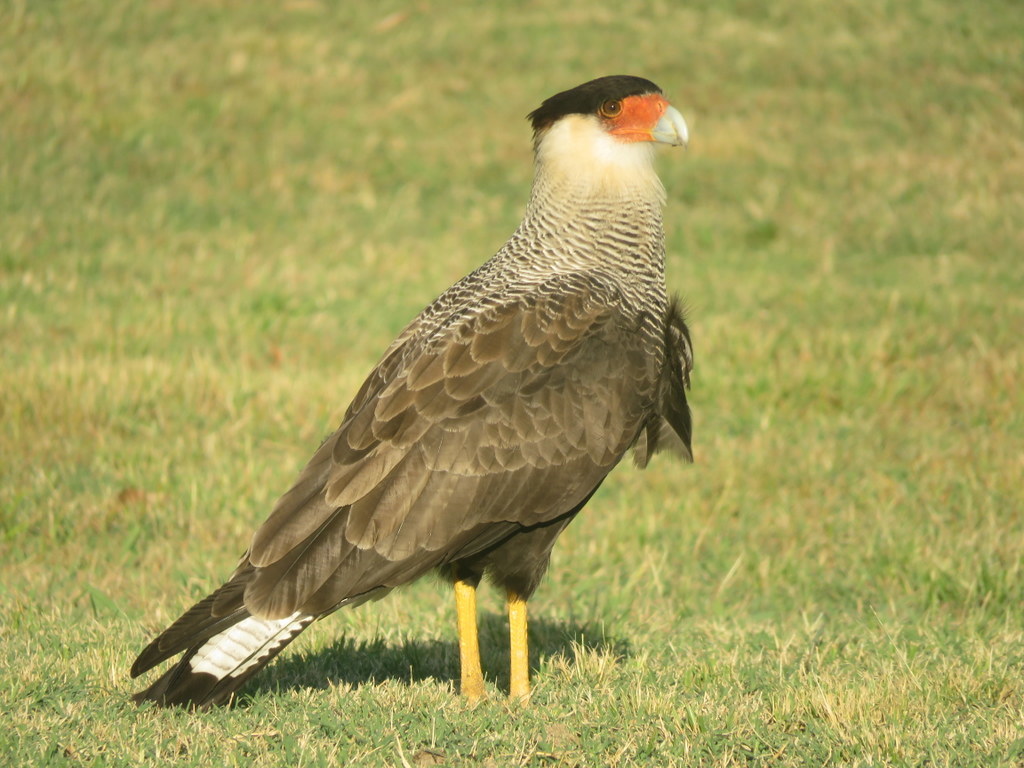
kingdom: Animalia
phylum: Chordata
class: Aves
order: Falconiformes
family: Falconidae
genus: Caracara
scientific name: Caracara plancus
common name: Southern caracara
